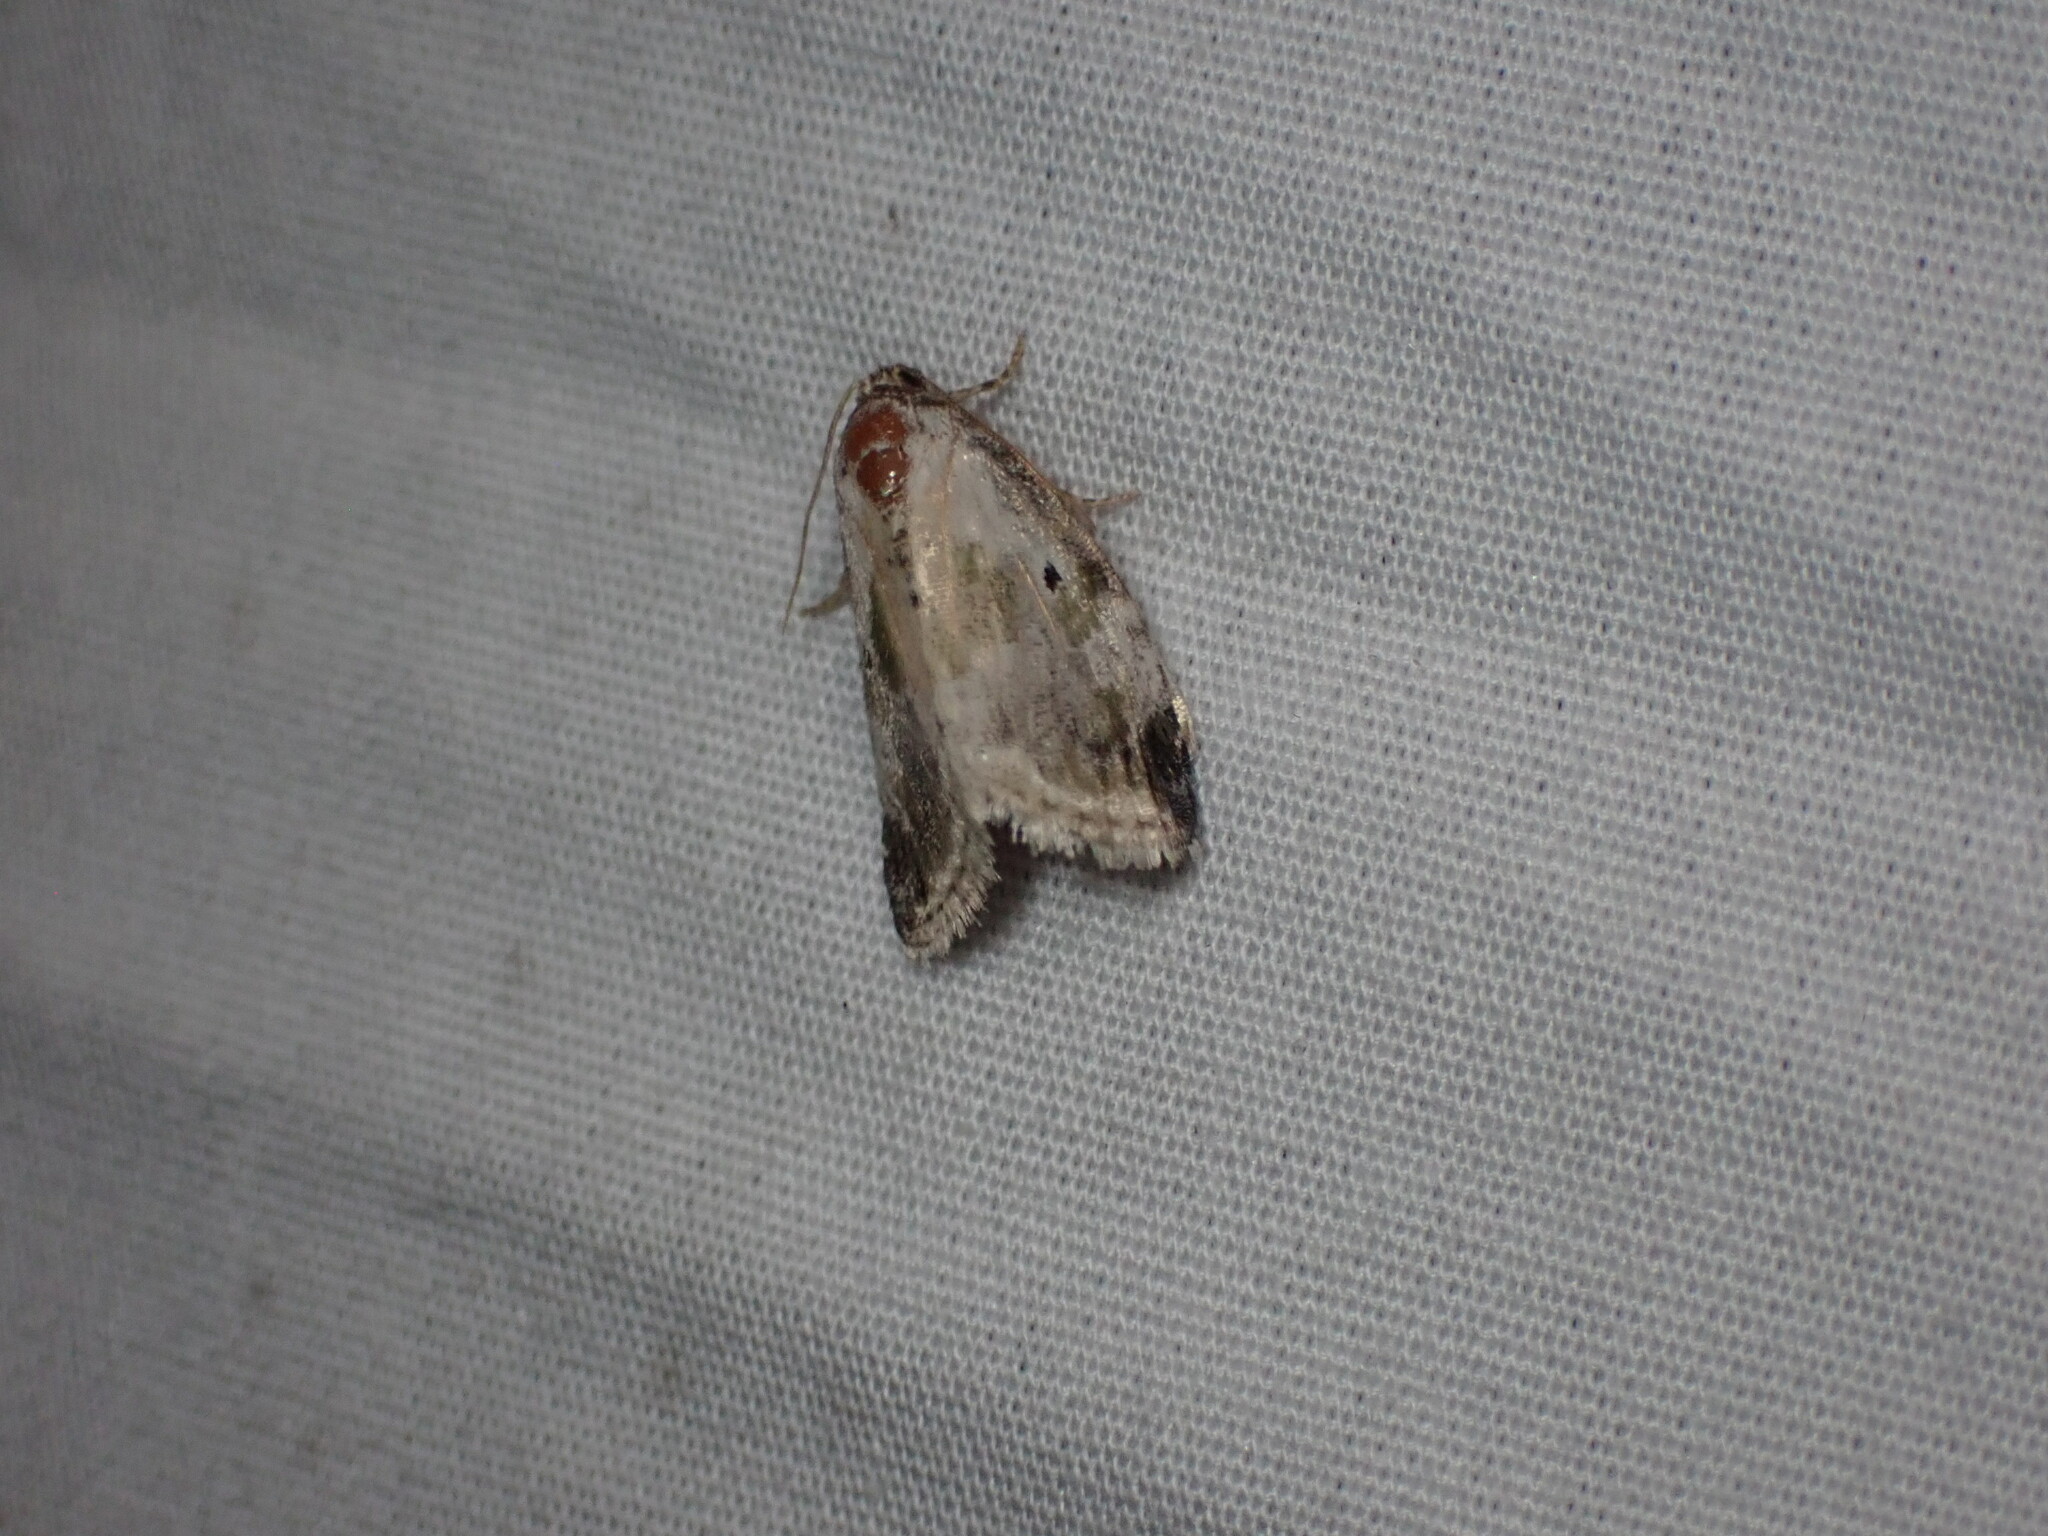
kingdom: Animalia
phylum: Arthropoda
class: Insecta
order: Lepidoptera
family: Noctuidae
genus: Maliattha
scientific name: Maliattha synochitis
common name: Black-dotted glyph
